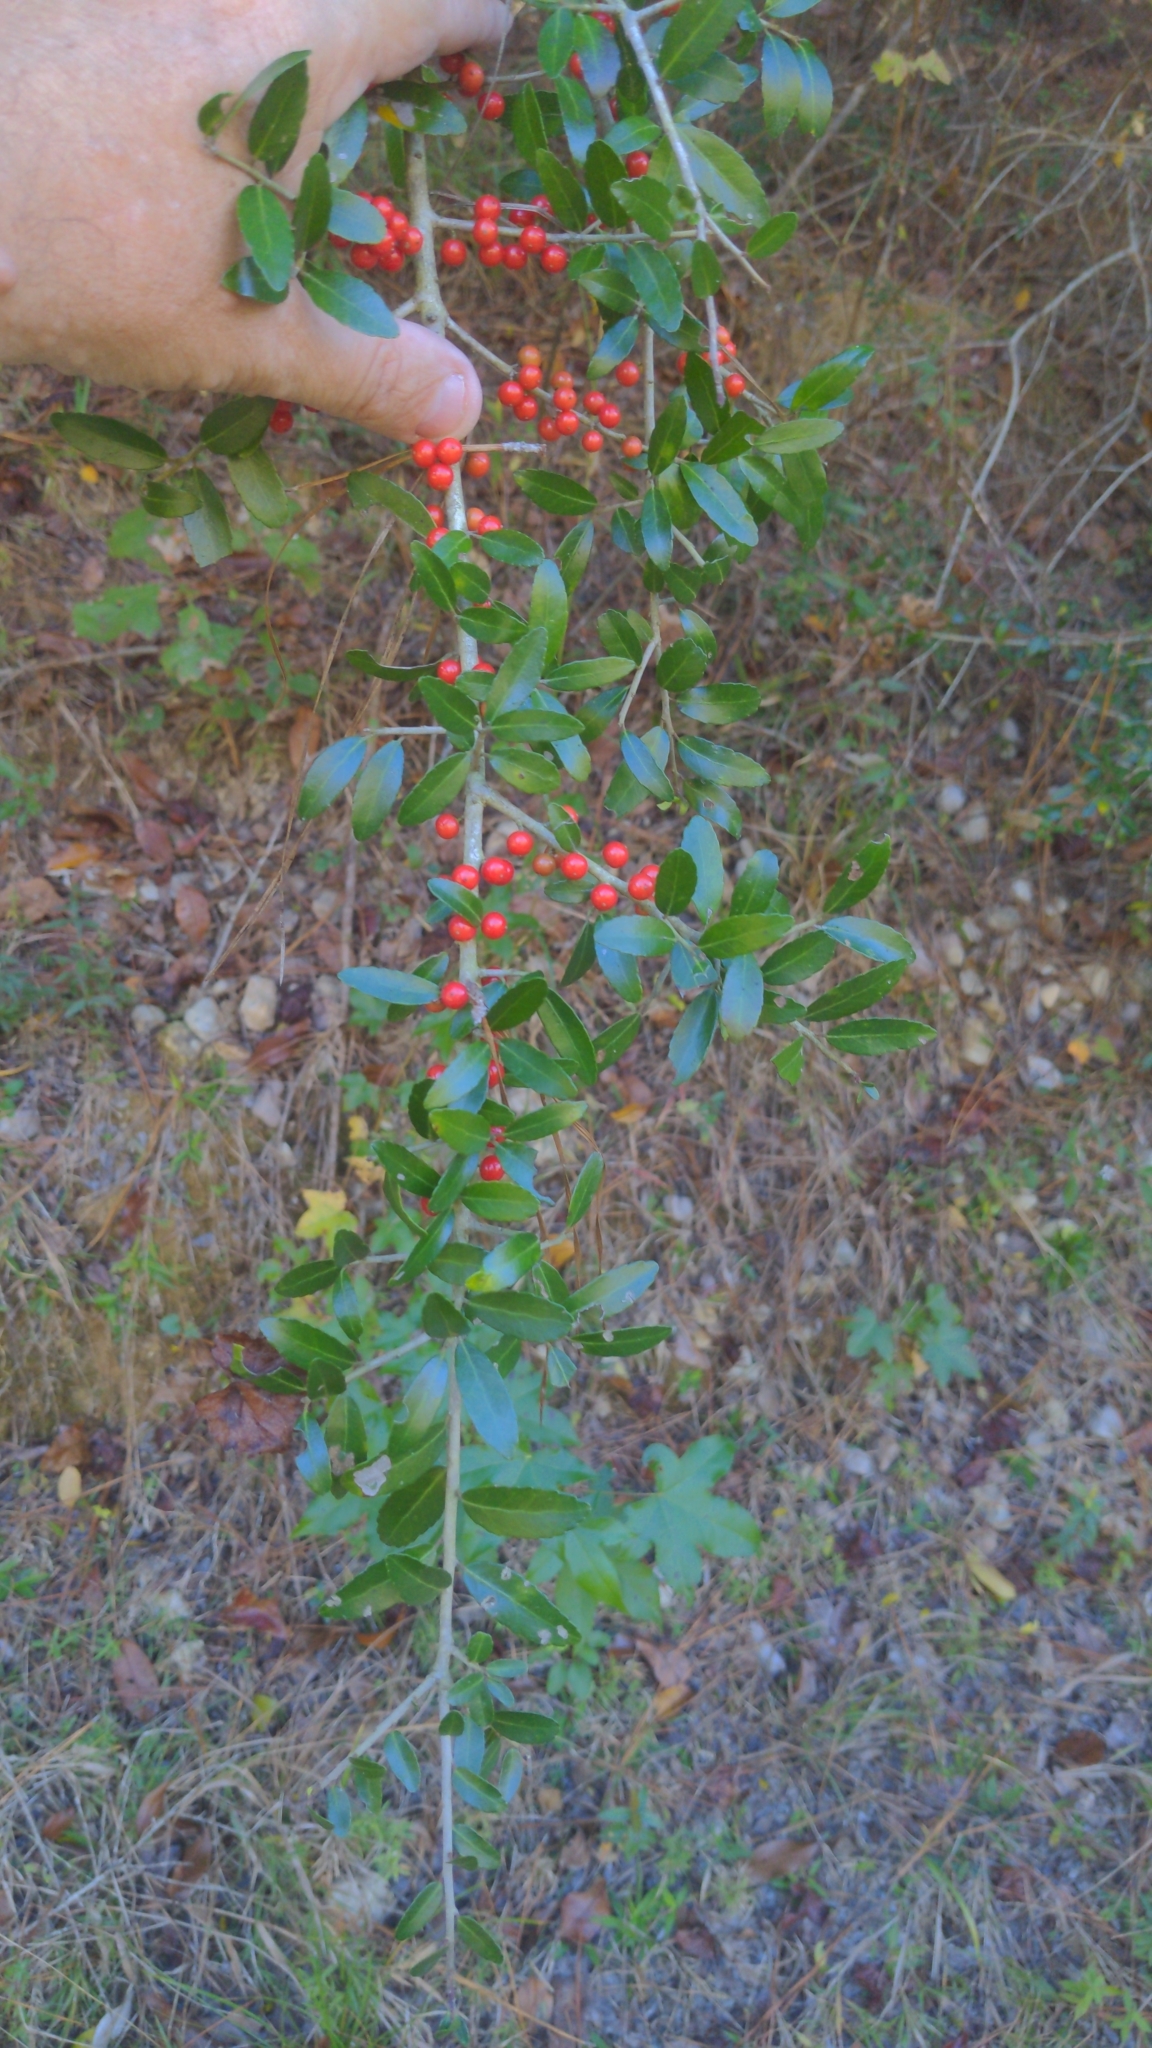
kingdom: Plantae
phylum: Tracheophyta
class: Magnoliopsida
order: Aquifoliales
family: Aquifoliaceae
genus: Ilex
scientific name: Ilex vomitoria
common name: Yaupon holly
